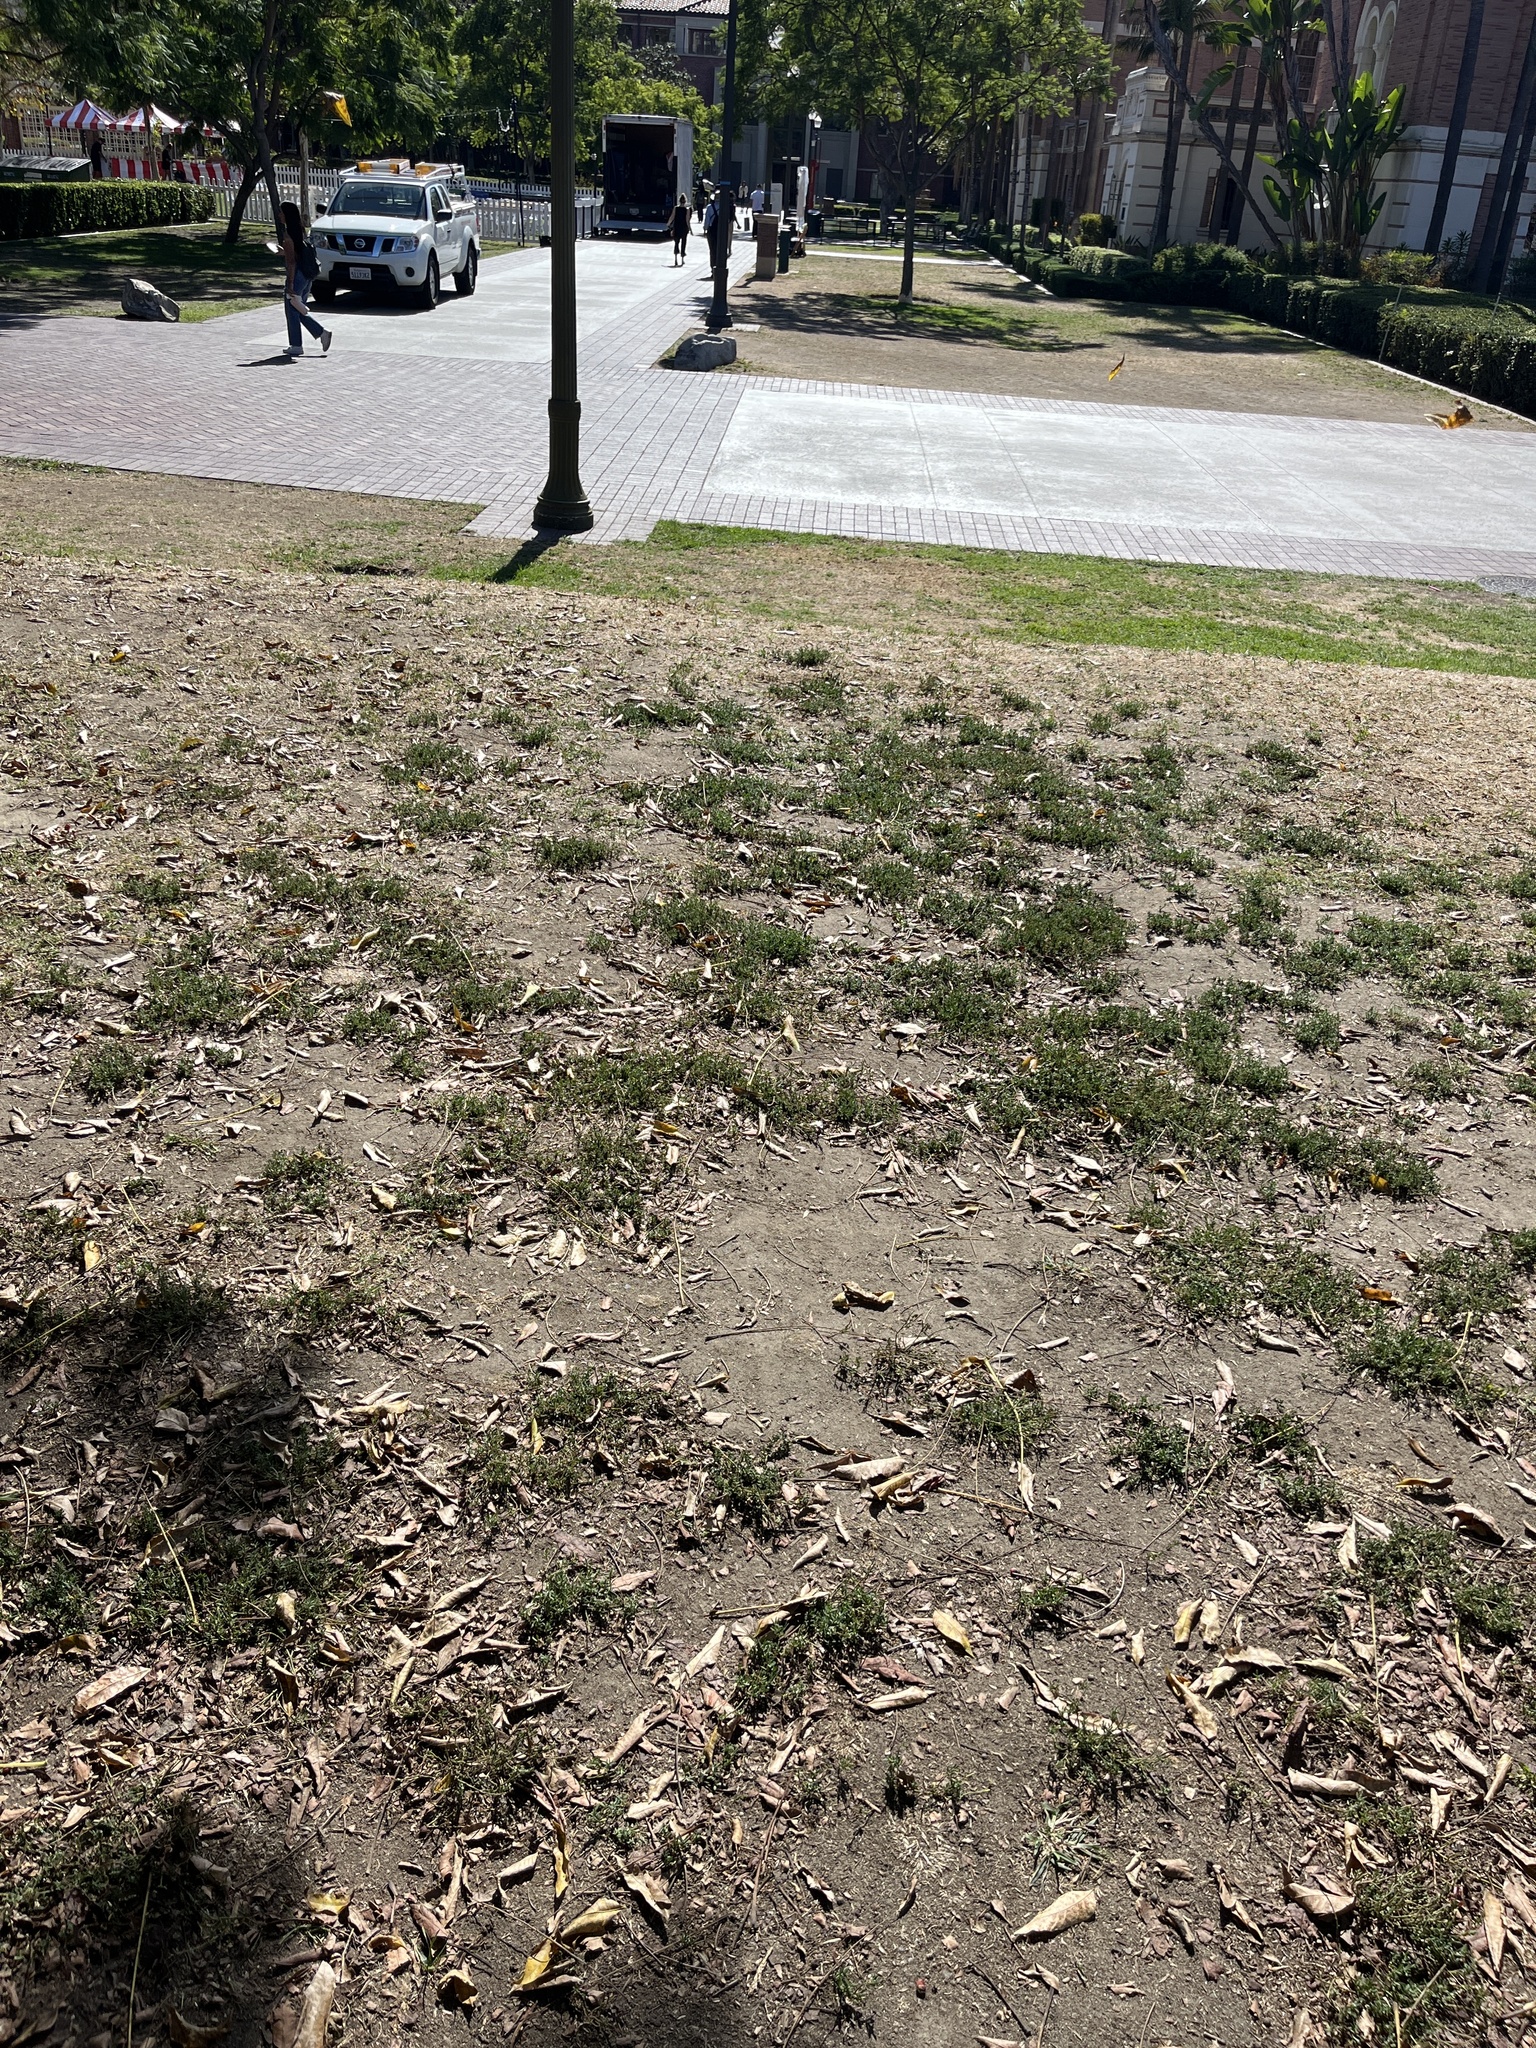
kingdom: Plantae
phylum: Tracheophyta
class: Magnoliopsida
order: Caryophyllales
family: Polygonaceae
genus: Polygonum
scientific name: Polygonum aviculare
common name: Prostrate knotweed
